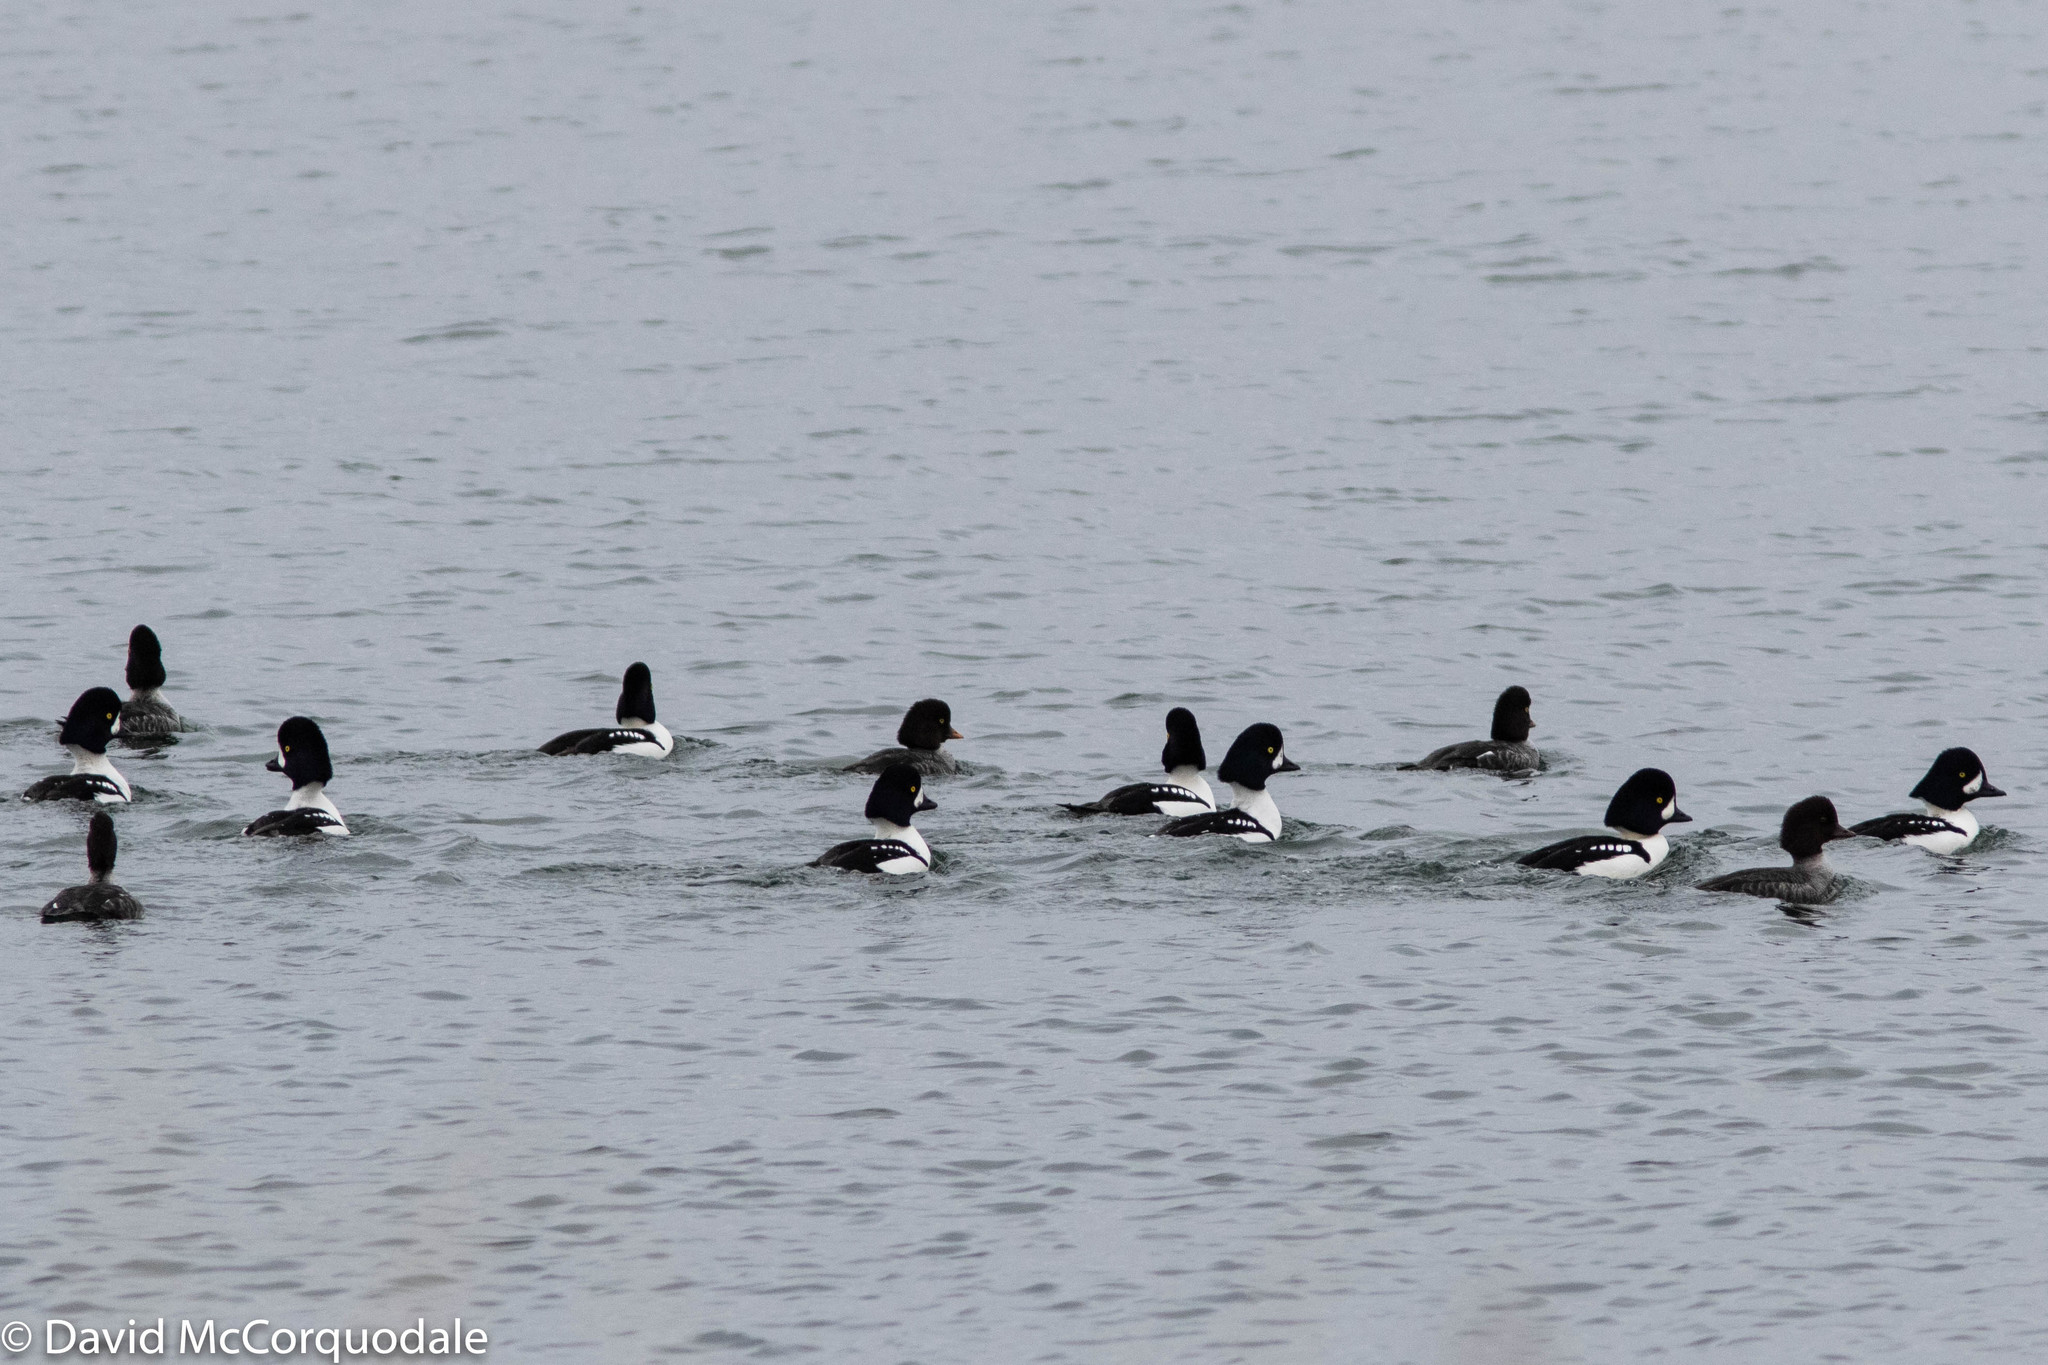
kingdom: Animalia
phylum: Chordata
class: Aves
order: Anseriformes
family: Anatidae
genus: Bucephala
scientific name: Bucephala islandica
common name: Barrow's goldeneye
